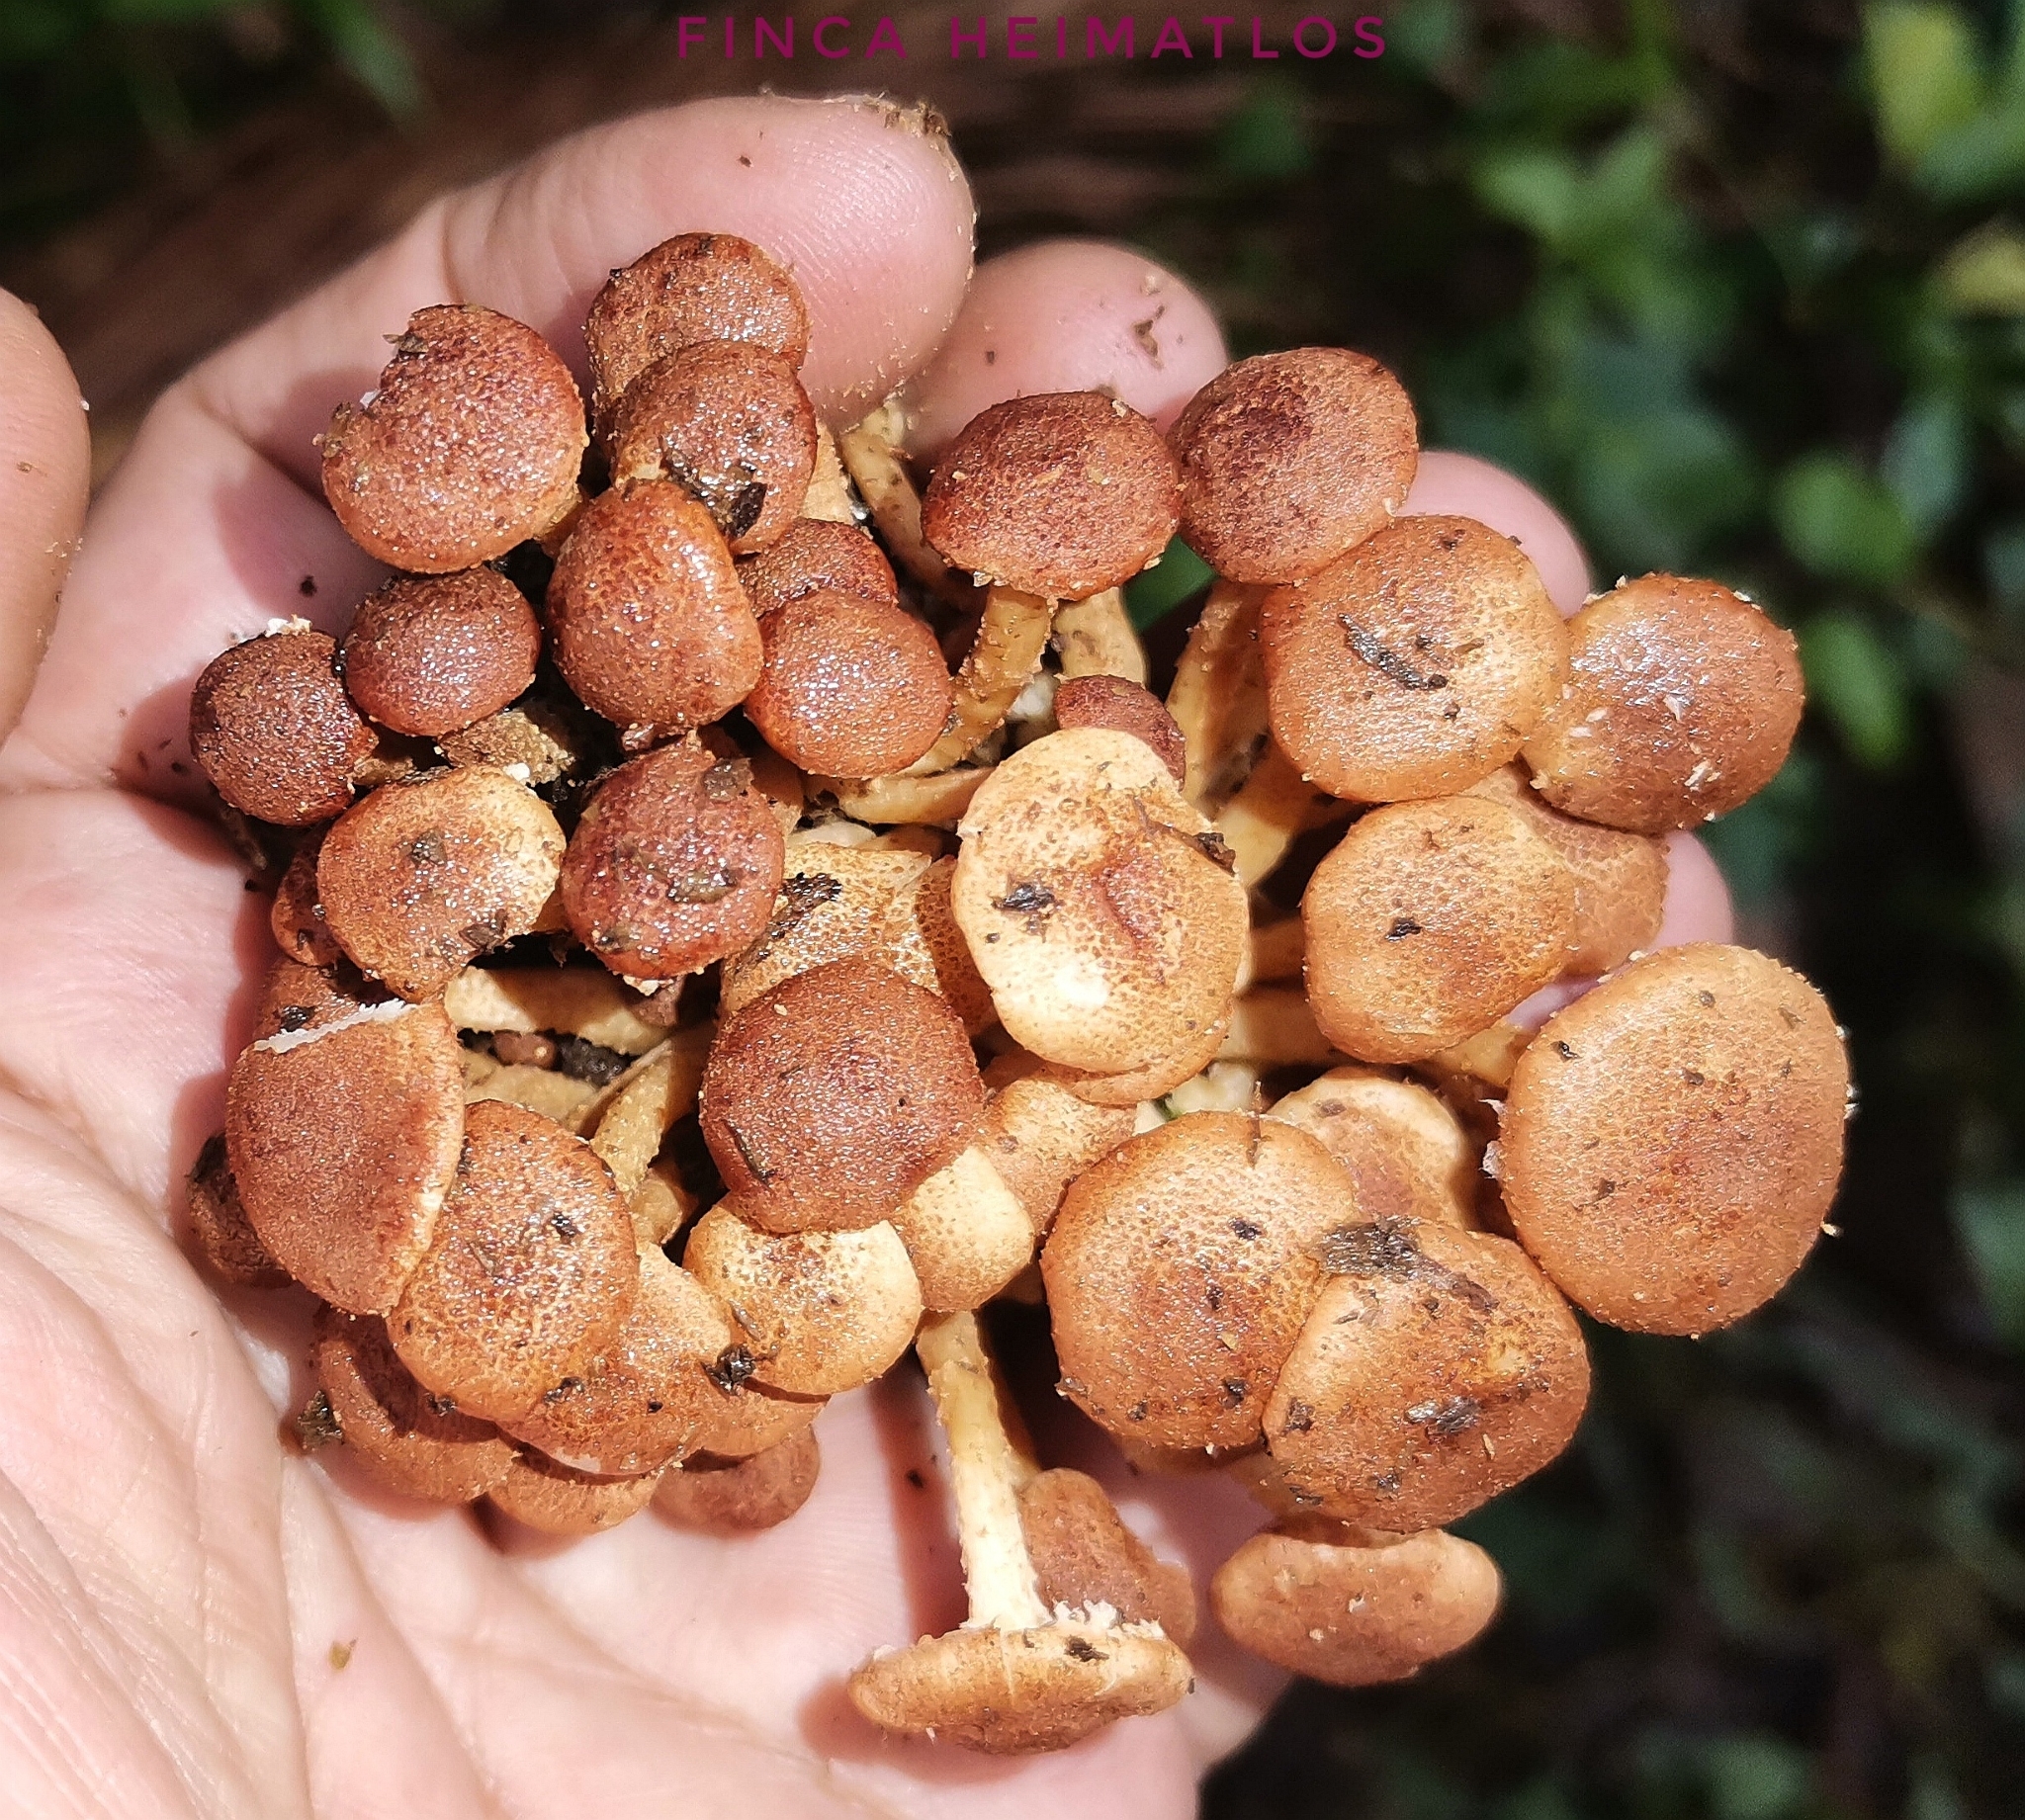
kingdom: Fungi
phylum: Basidiomycota
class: Agaricomycetes
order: Agaricales
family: Agaricaceae
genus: Ripartitella
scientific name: Ripartitella brasiliensis
